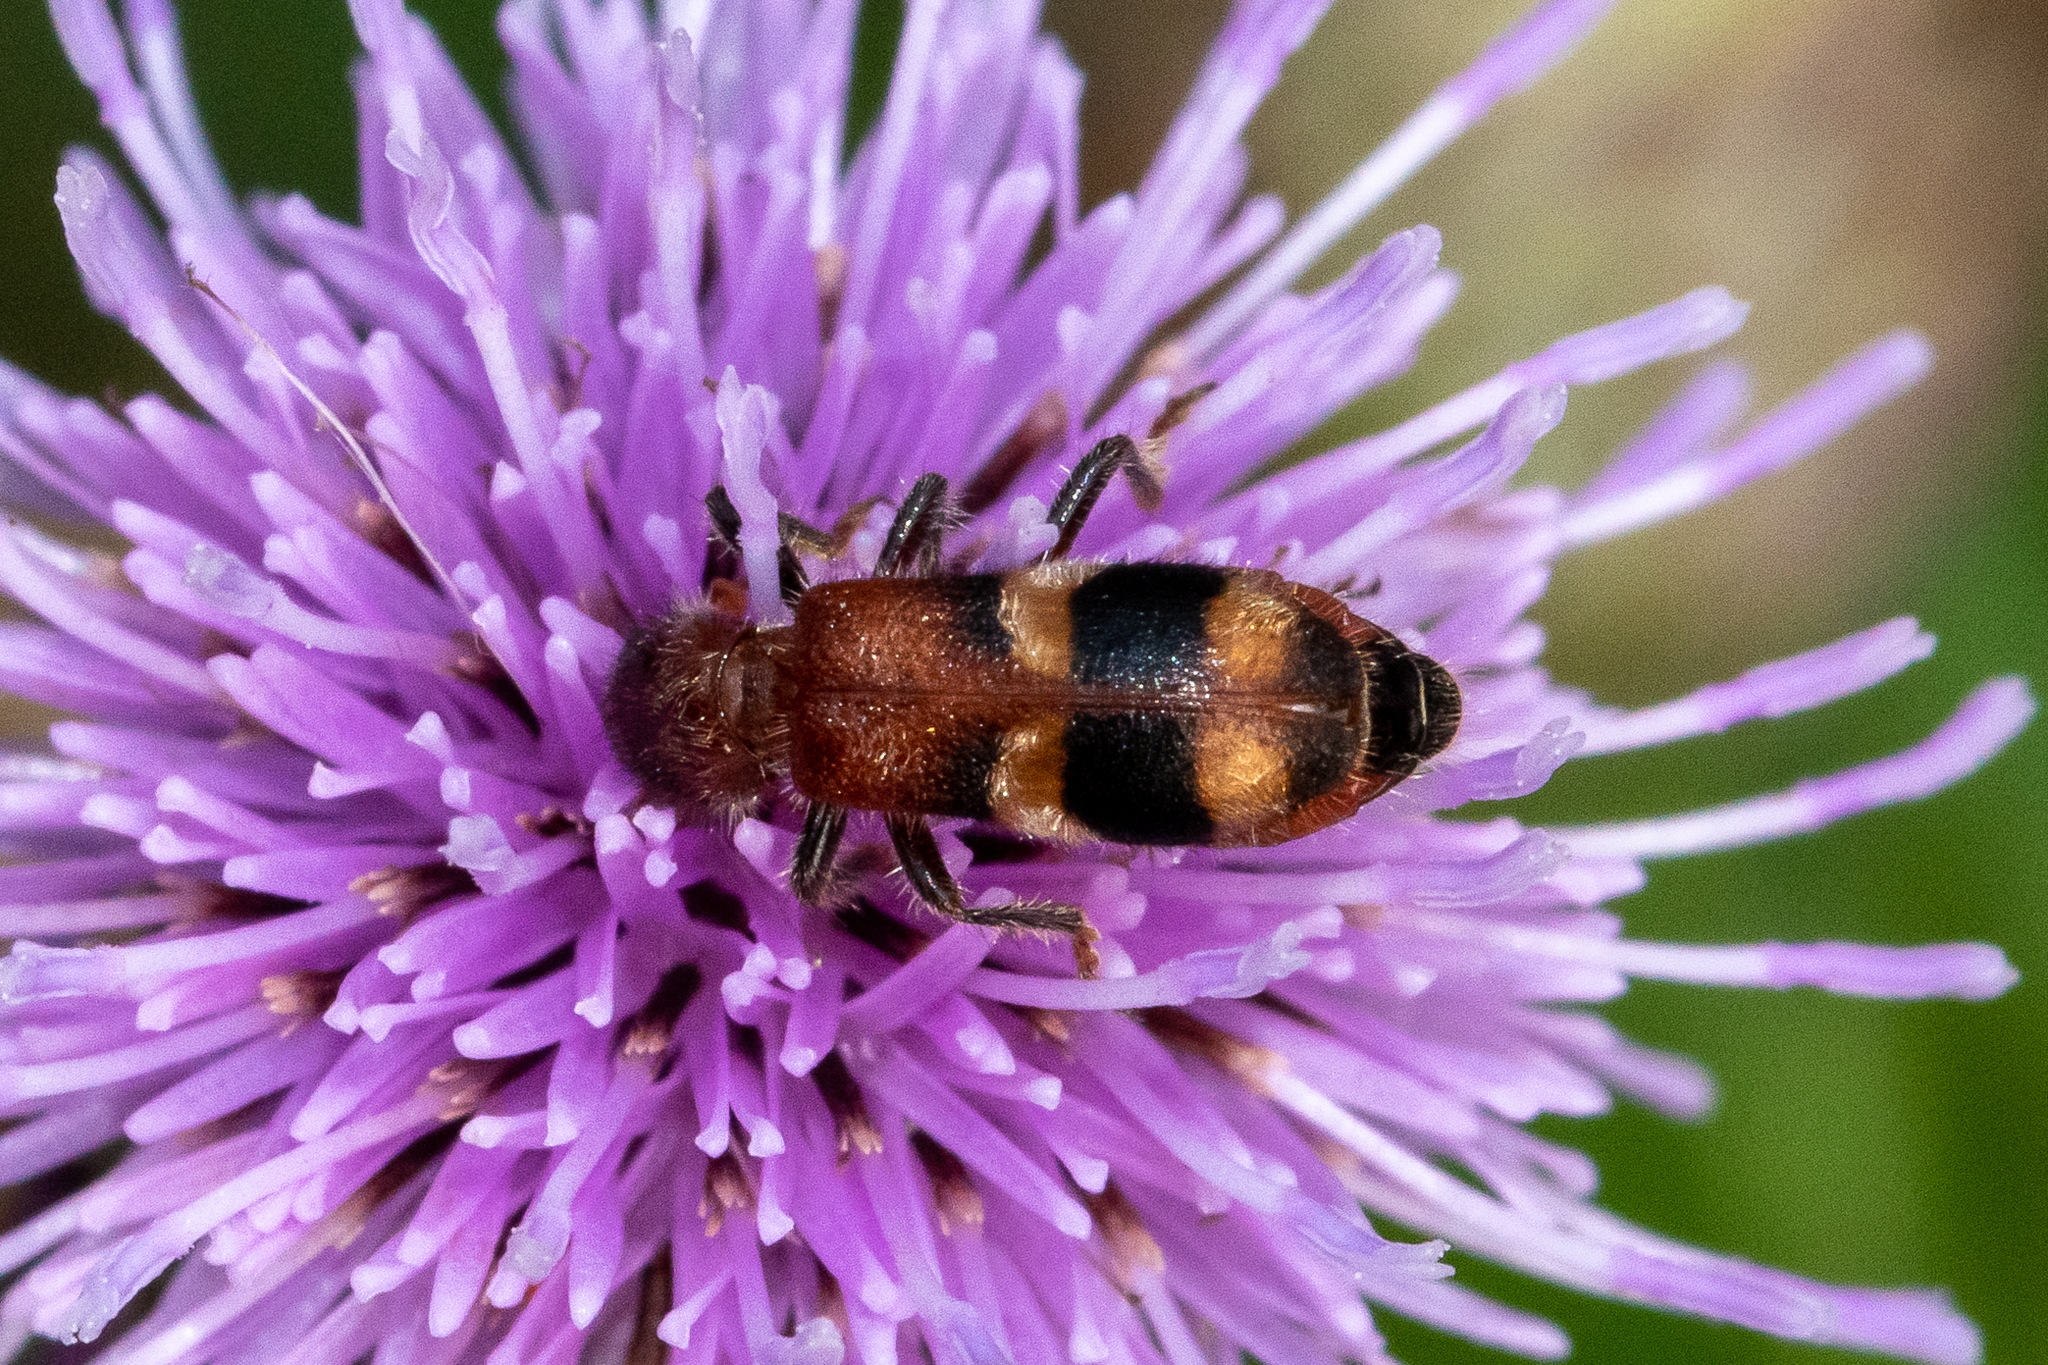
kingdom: Animalia
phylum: Arthropoda
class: Insecta
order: Coleoptera
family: Cleridae
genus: Enoclerus
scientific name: Enoclerus rosmarus
